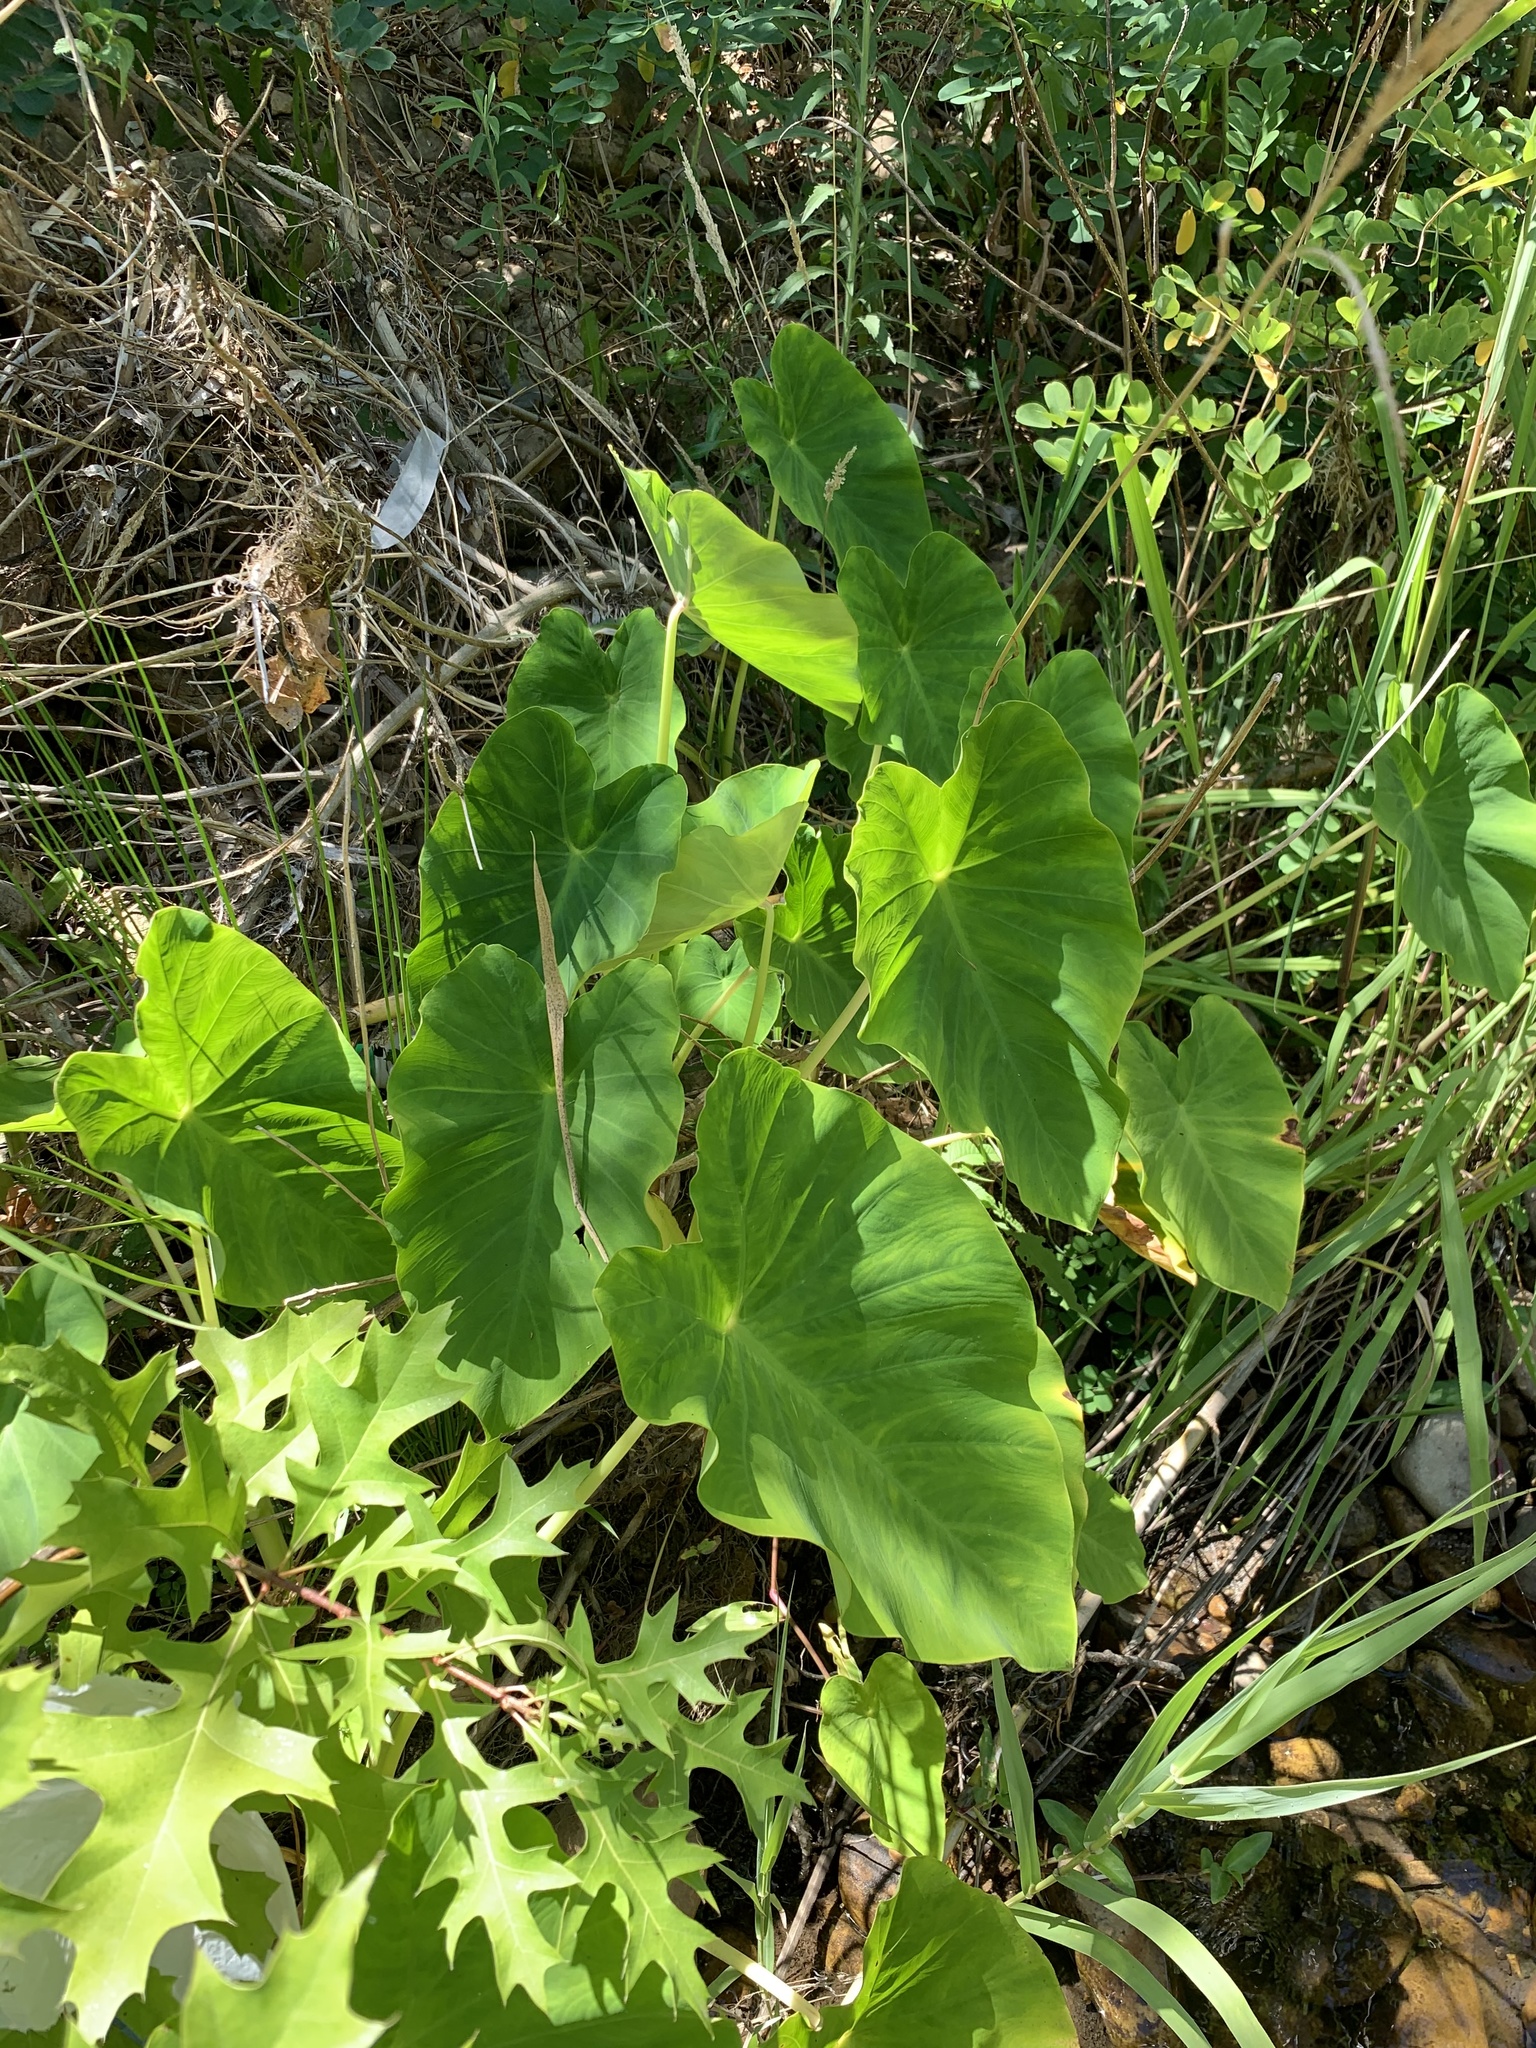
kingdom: Plantae
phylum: Tracheophyta
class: Liliopsida
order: Alismatales
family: Araceae
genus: Colocasia
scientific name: Colocasia esculenta
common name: Taro
